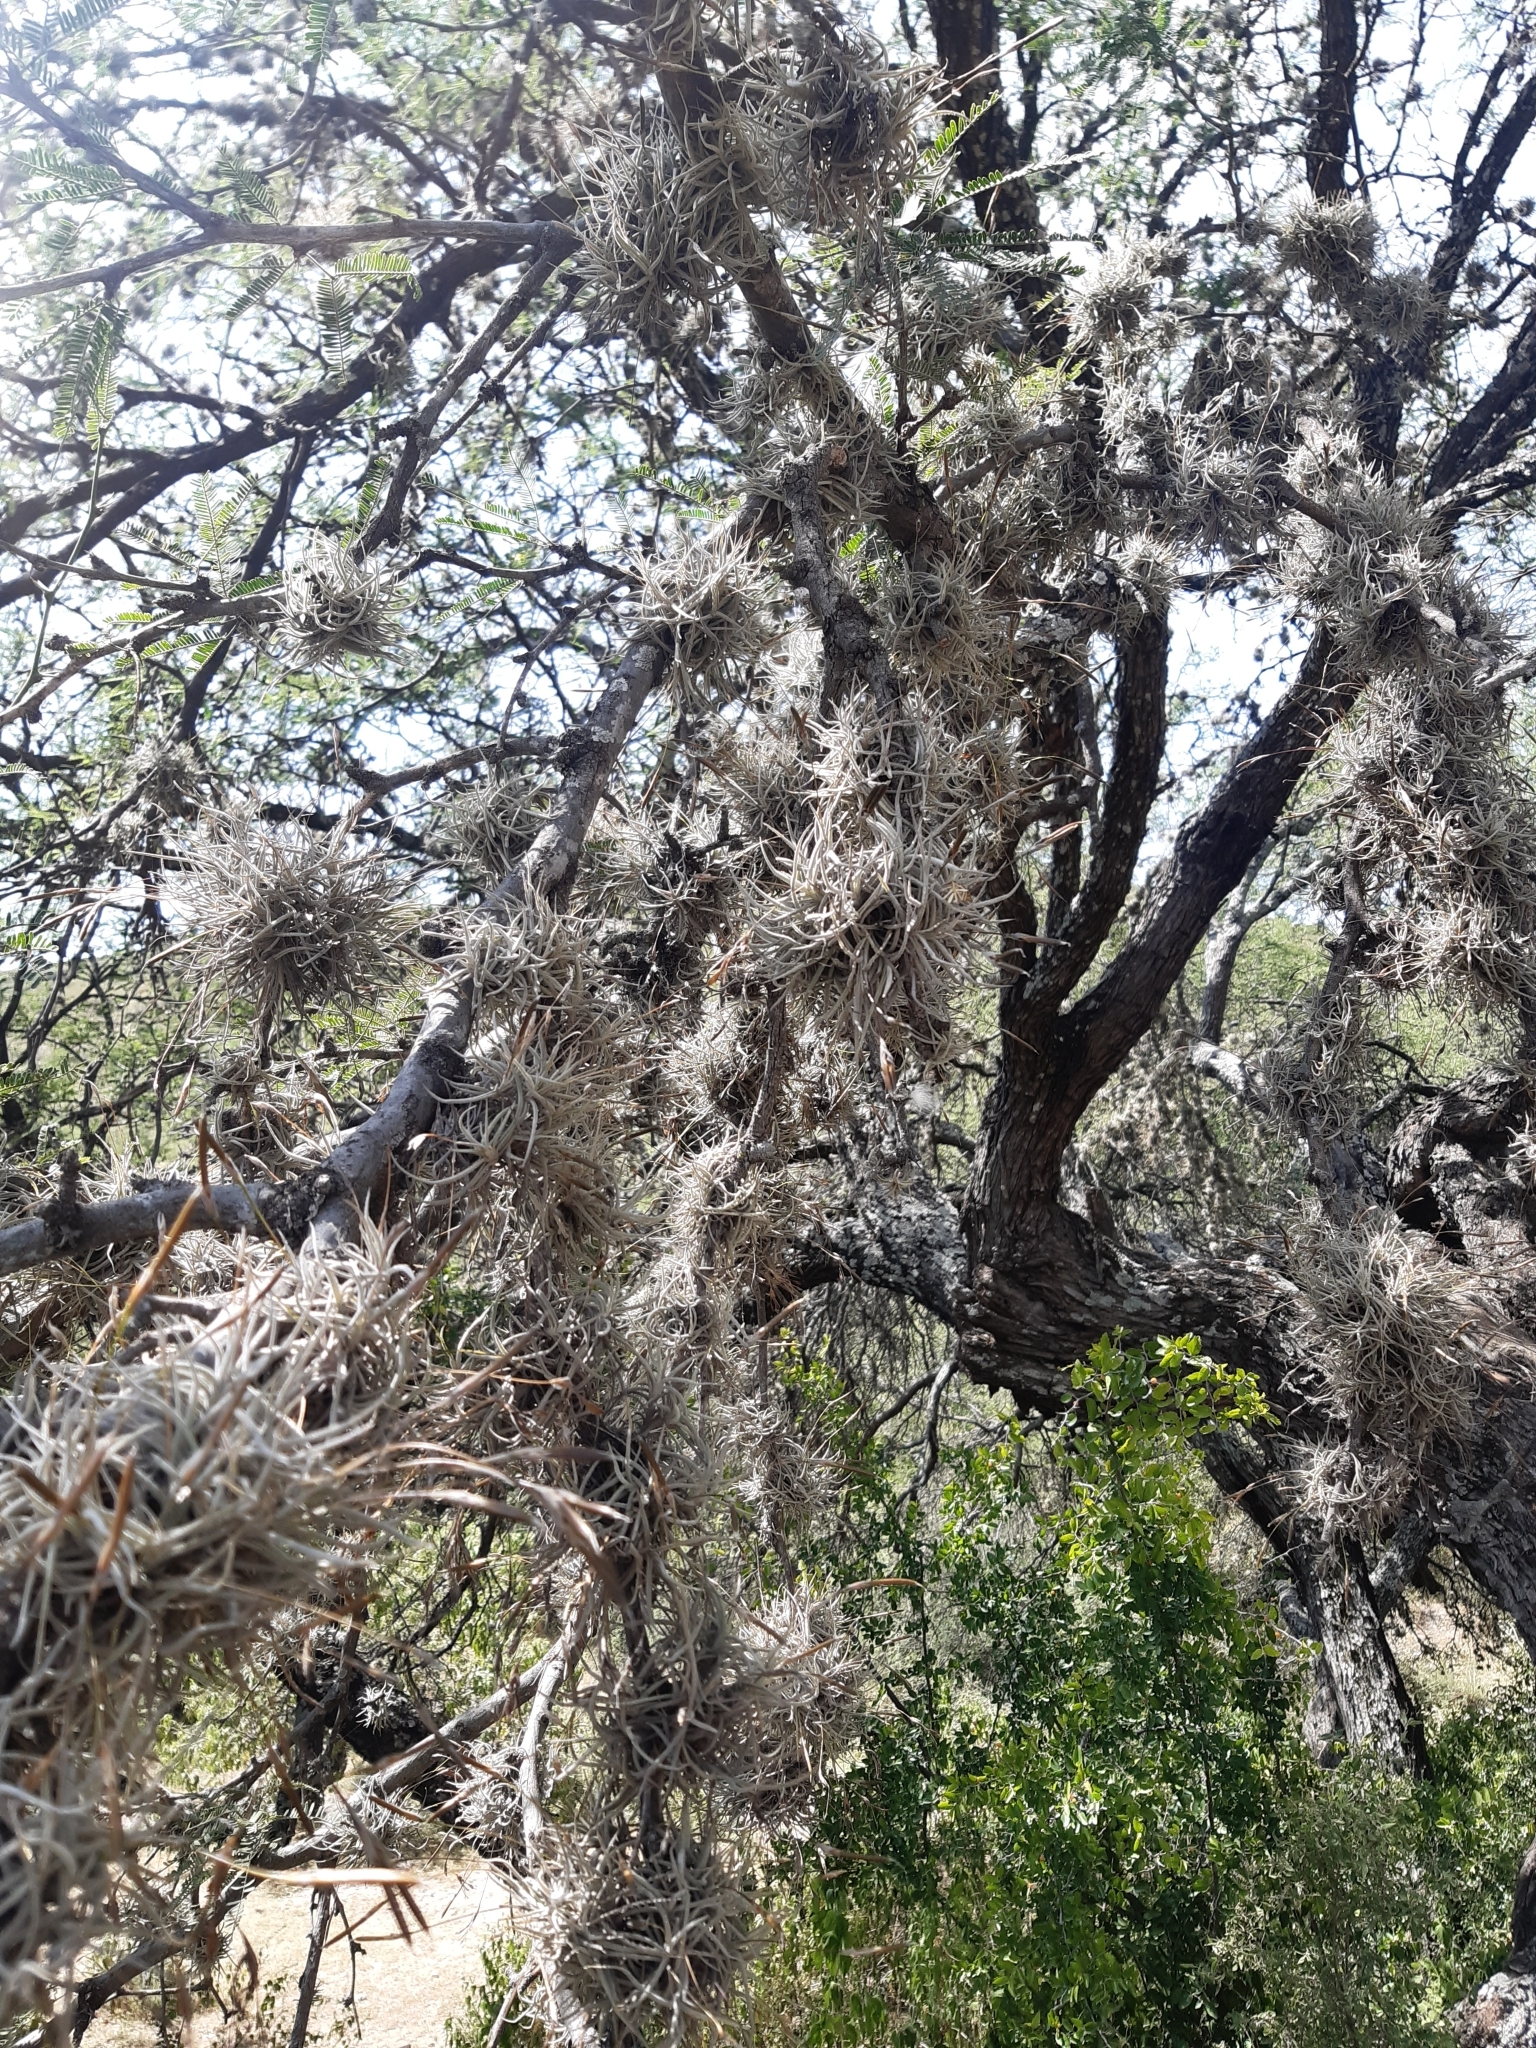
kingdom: Plantae
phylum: Tracheophyta
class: Liliopsida
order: Poales
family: Bromeliaceae
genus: Tillandsia
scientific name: Tillandsia recurvata
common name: Small ballmoss
